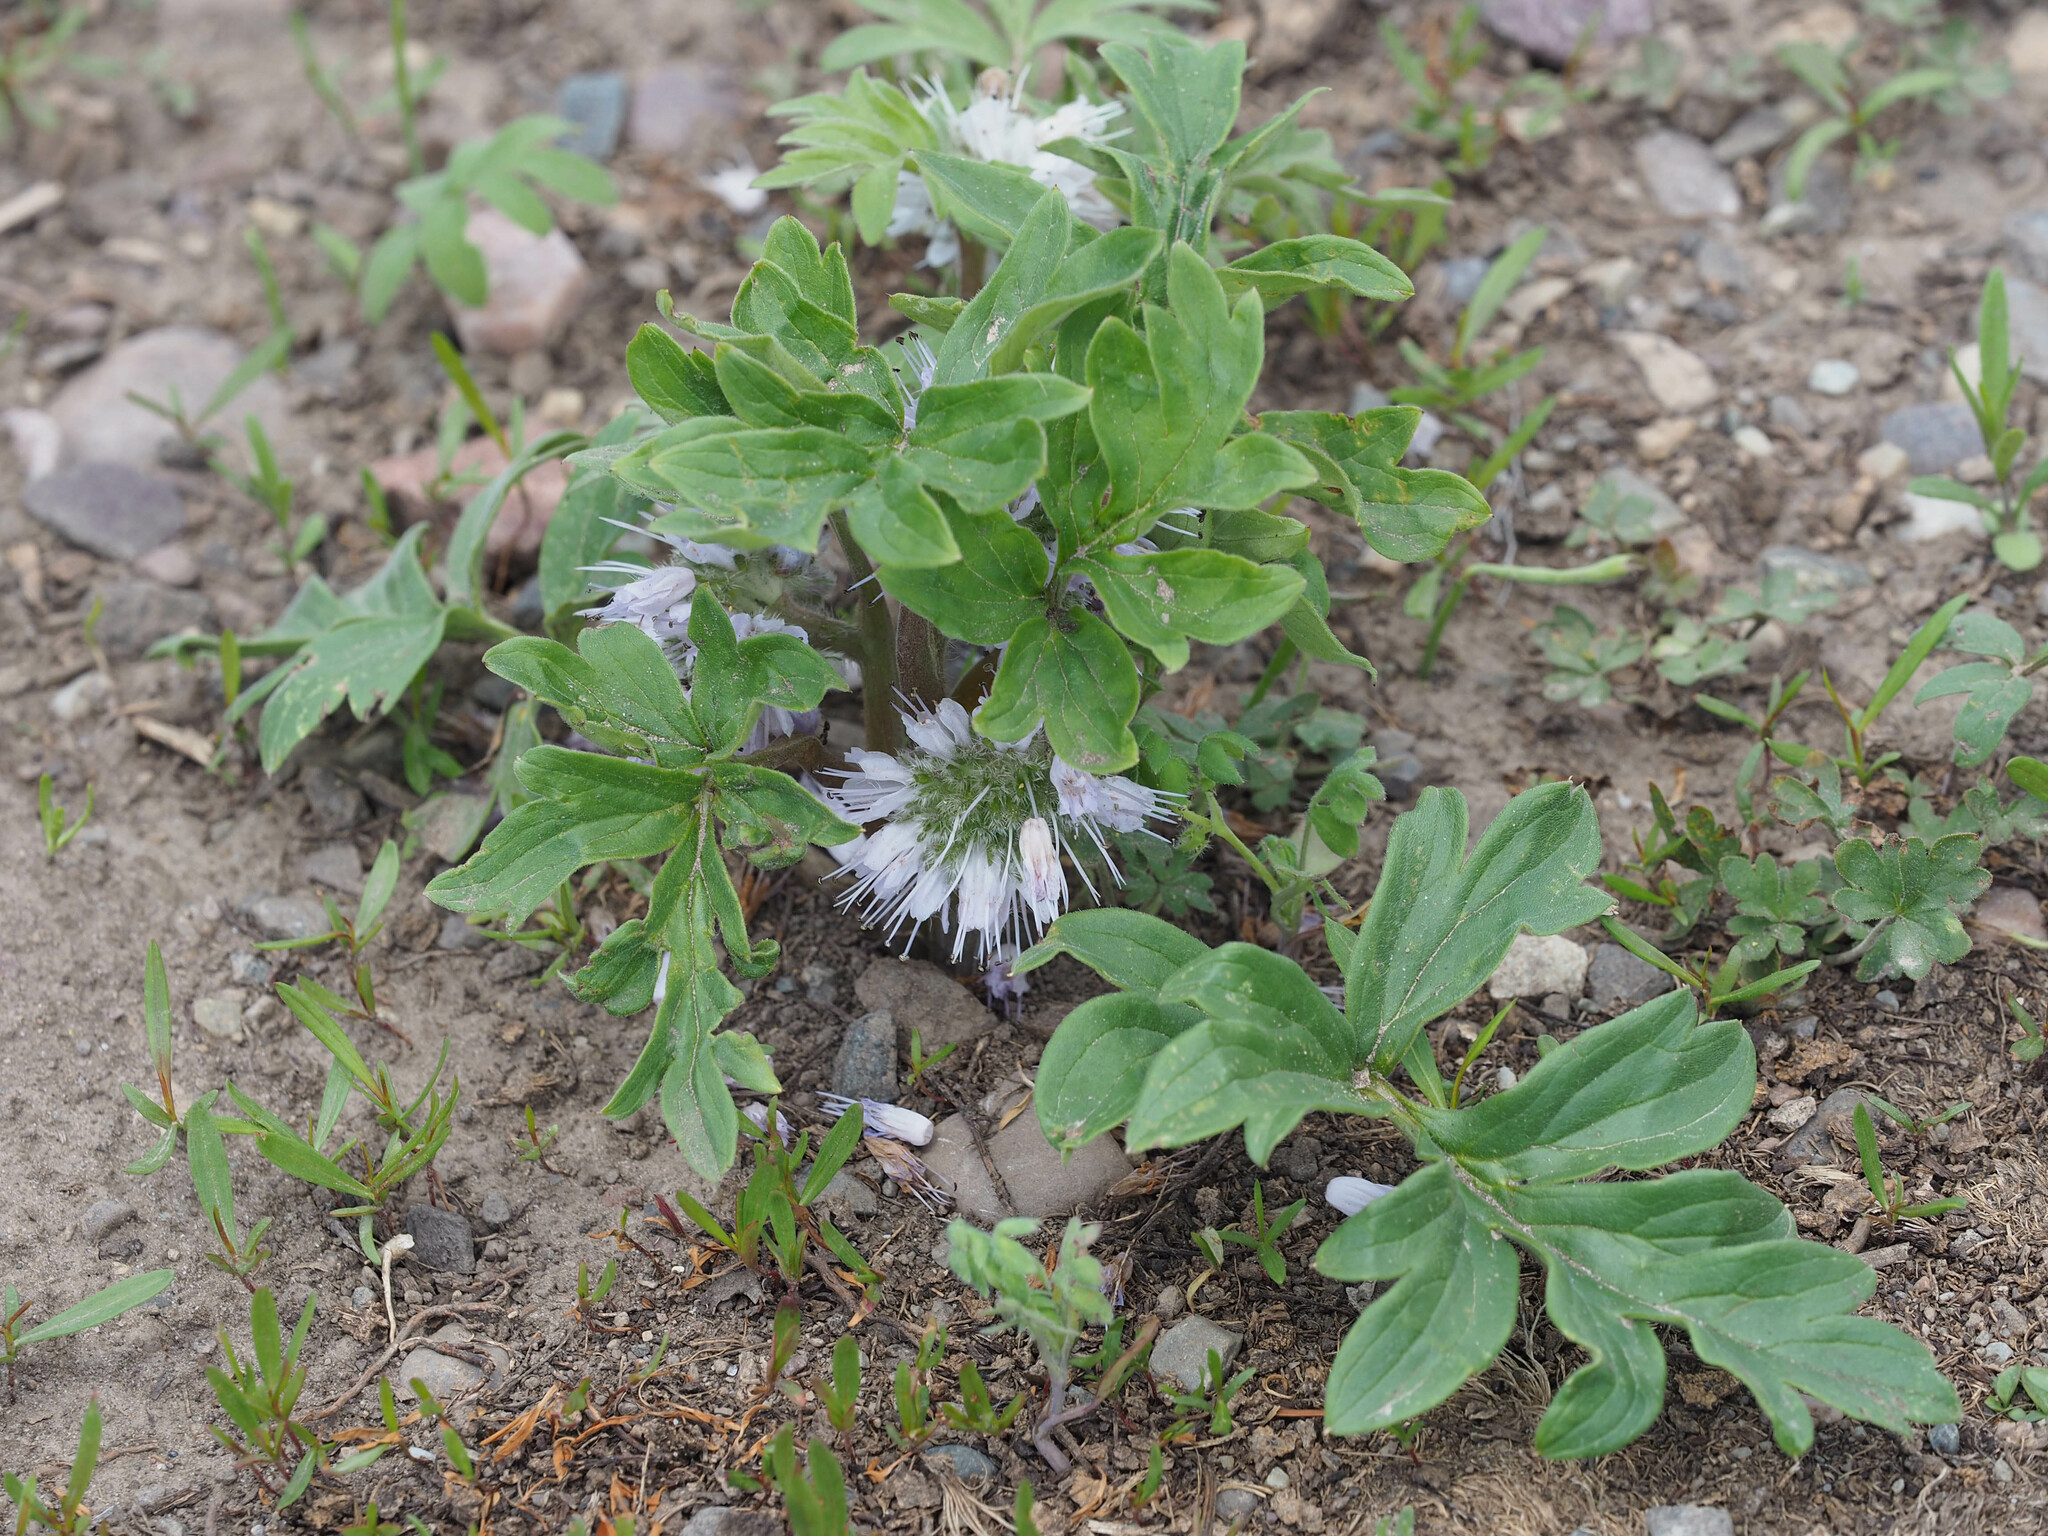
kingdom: Plantae
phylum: Tracheophyta
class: Magnoliopsida
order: Boraginales
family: Hydrophyllaceae
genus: Hydrophyllum
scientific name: Hydrophyllum capitatum
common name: Woollen-breeches
